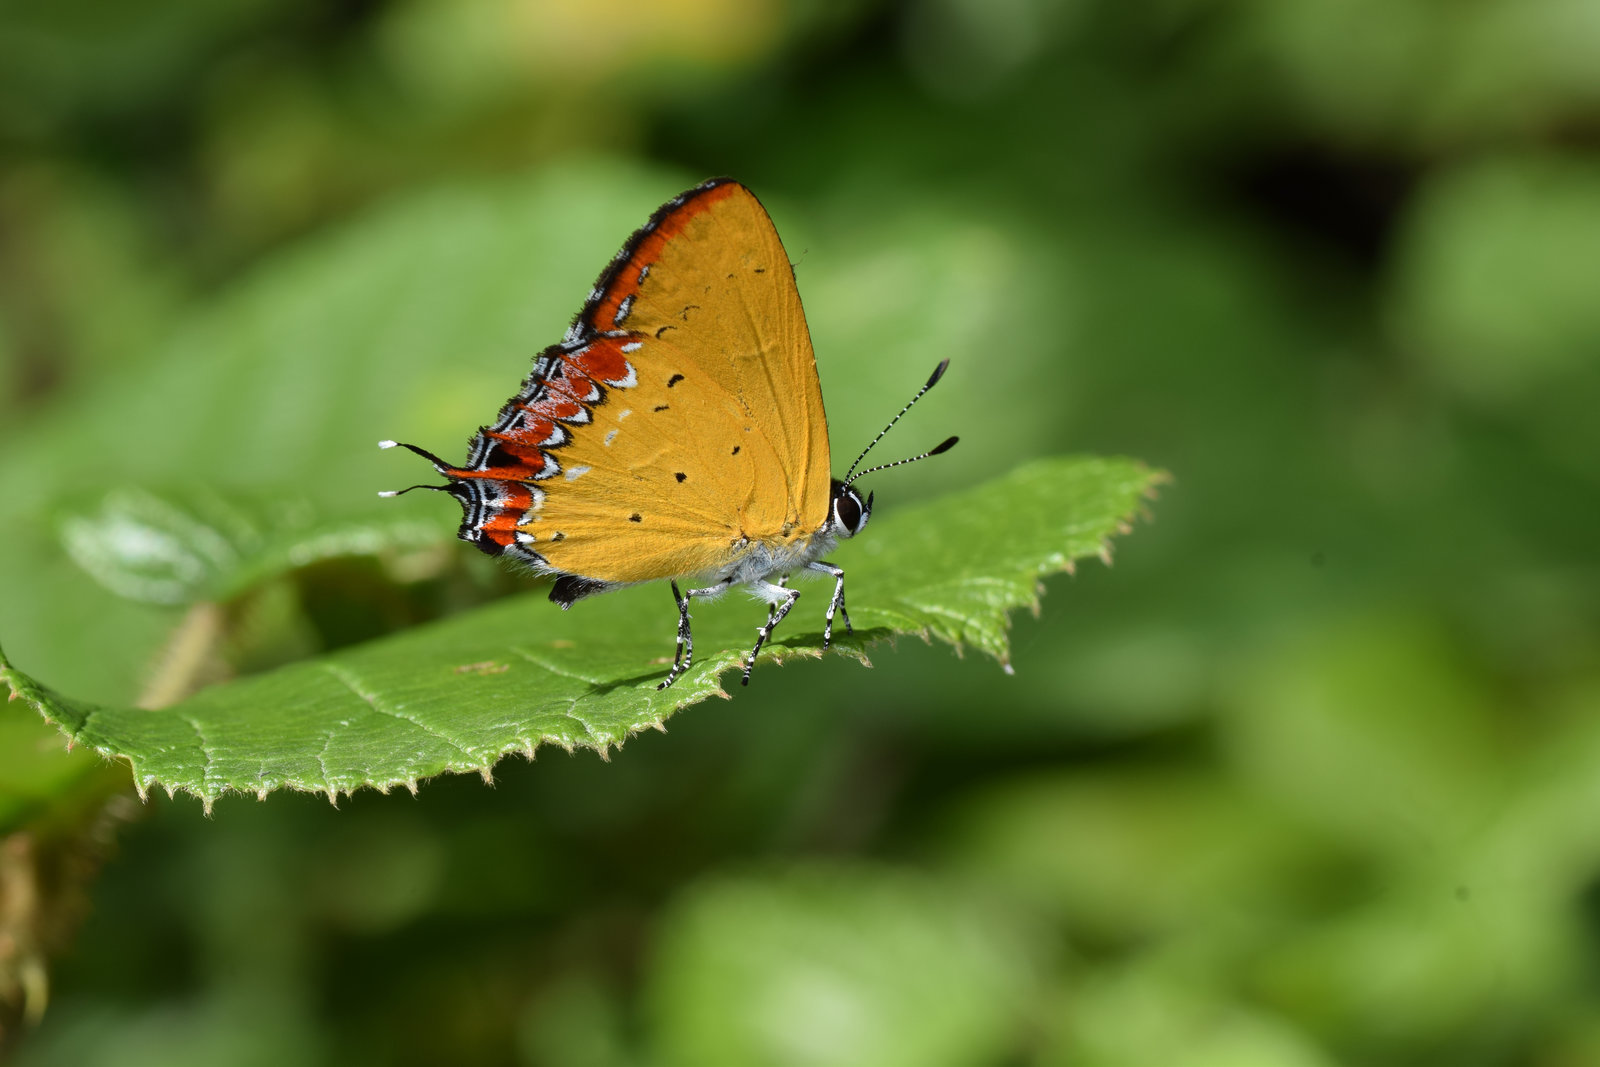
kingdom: Animalia
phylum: Arthropoda
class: Insecta
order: Lepidoptera
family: Lycaenidae
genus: Heliophorus
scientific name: Heliophorus epicles
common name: Purple sapphire
